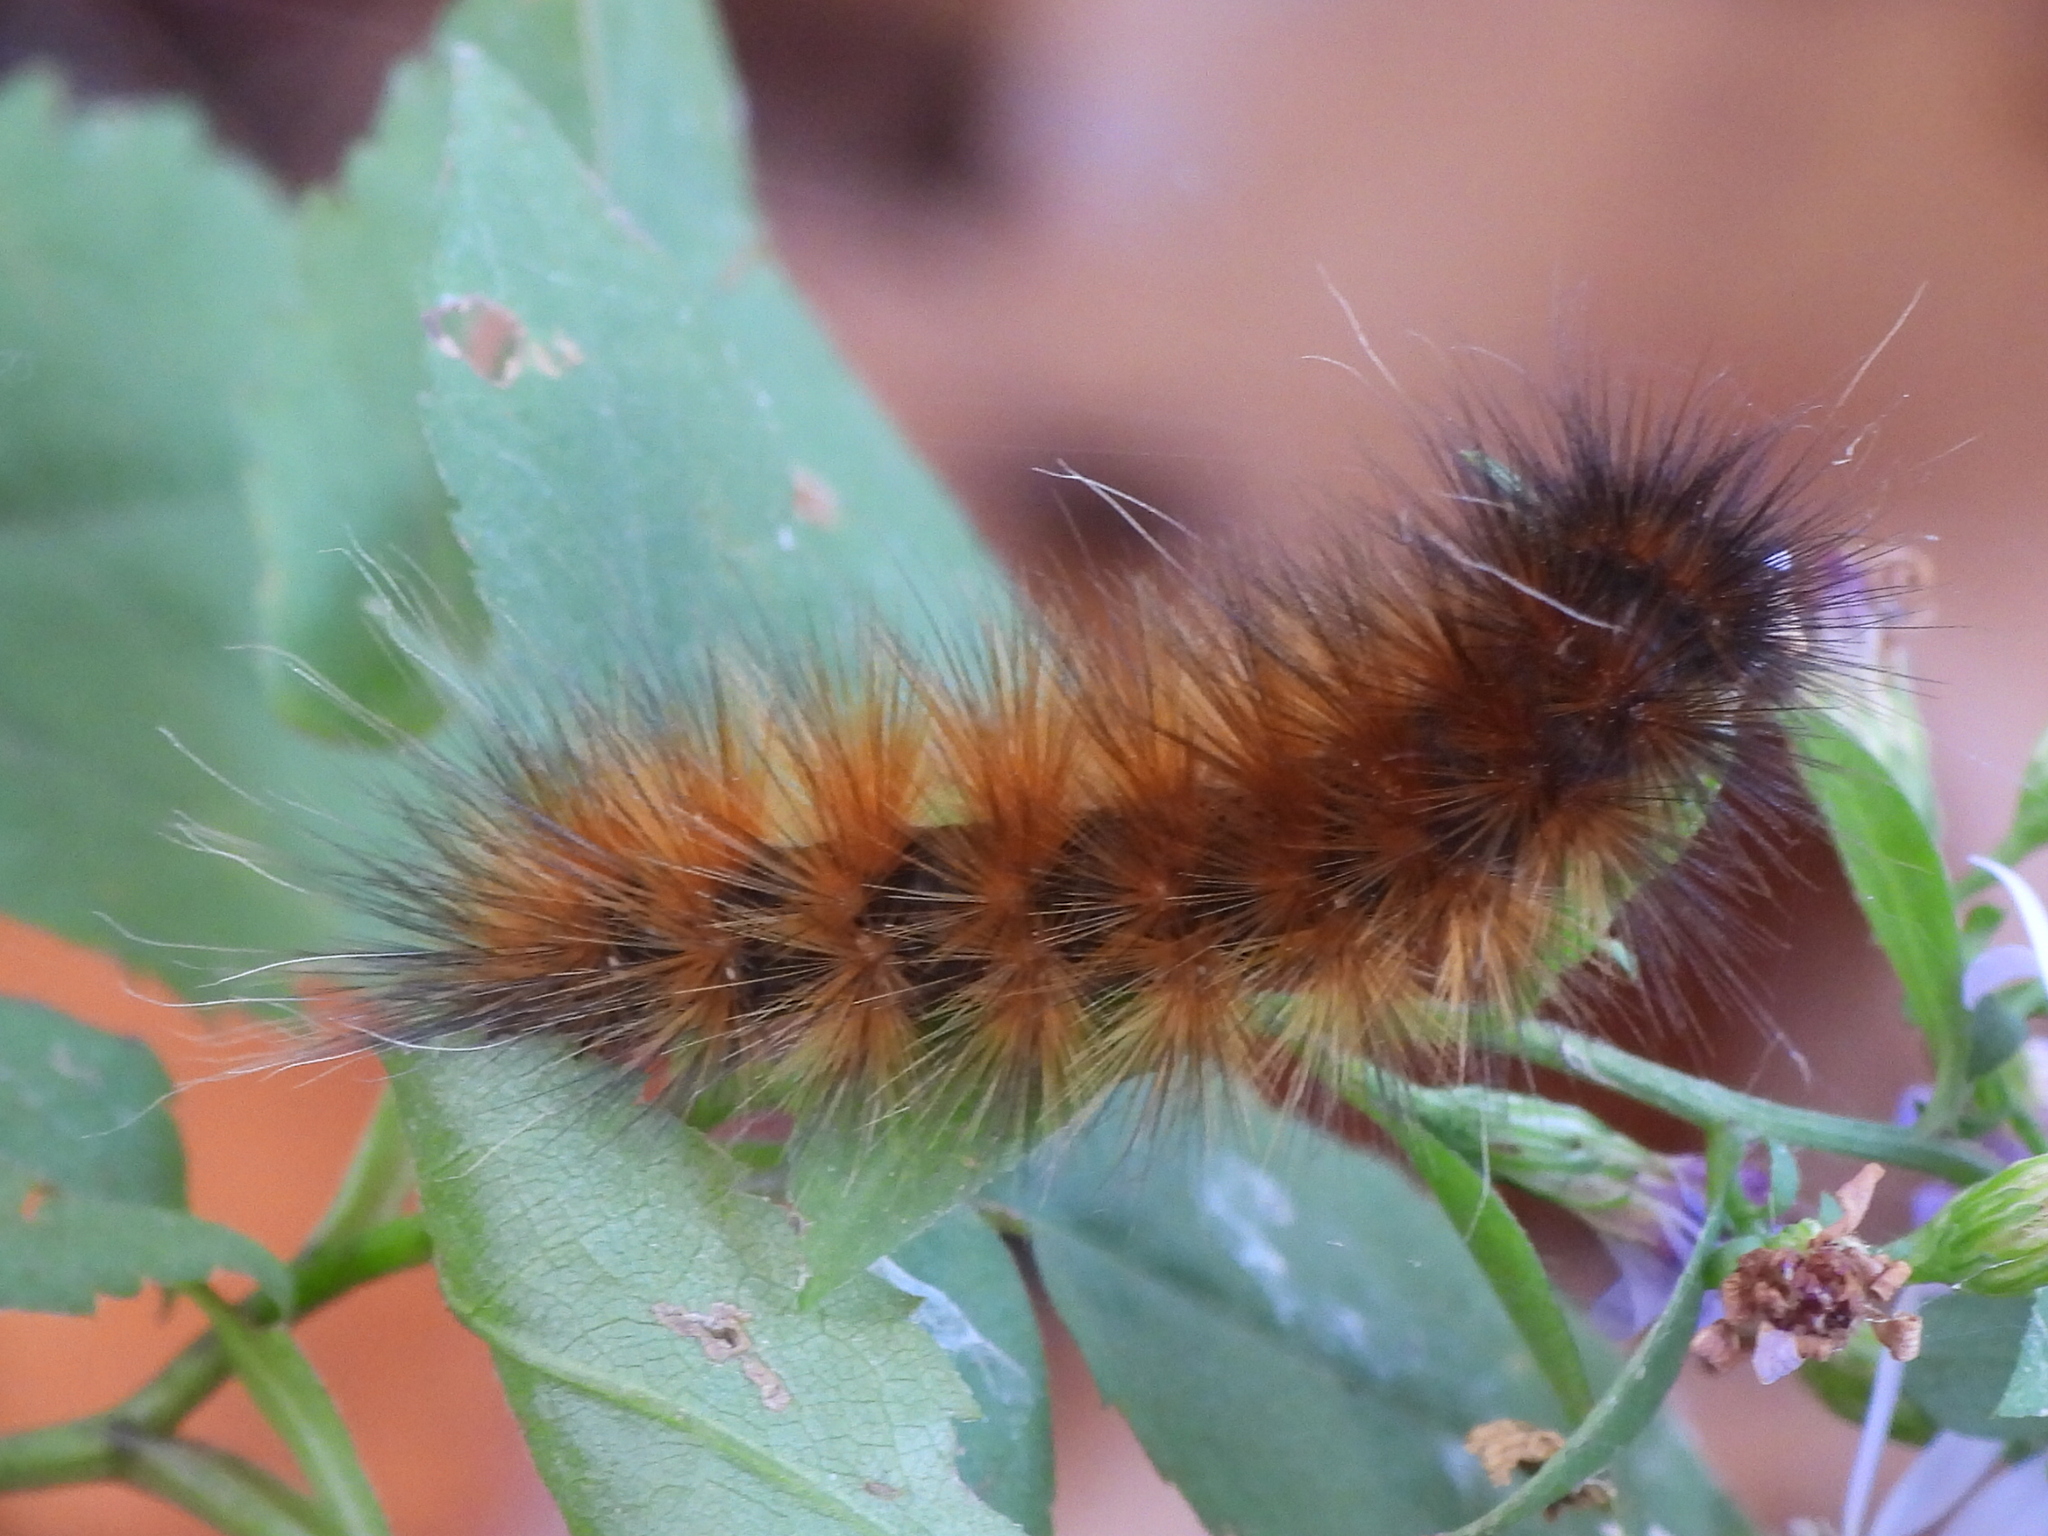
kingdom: Animalia
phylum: Arthropoda
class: Insecta
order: Lepidoptera
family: Erebidae
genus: Spilosoma
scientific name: Spilosoma virginica
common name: Virginia tiger moth
